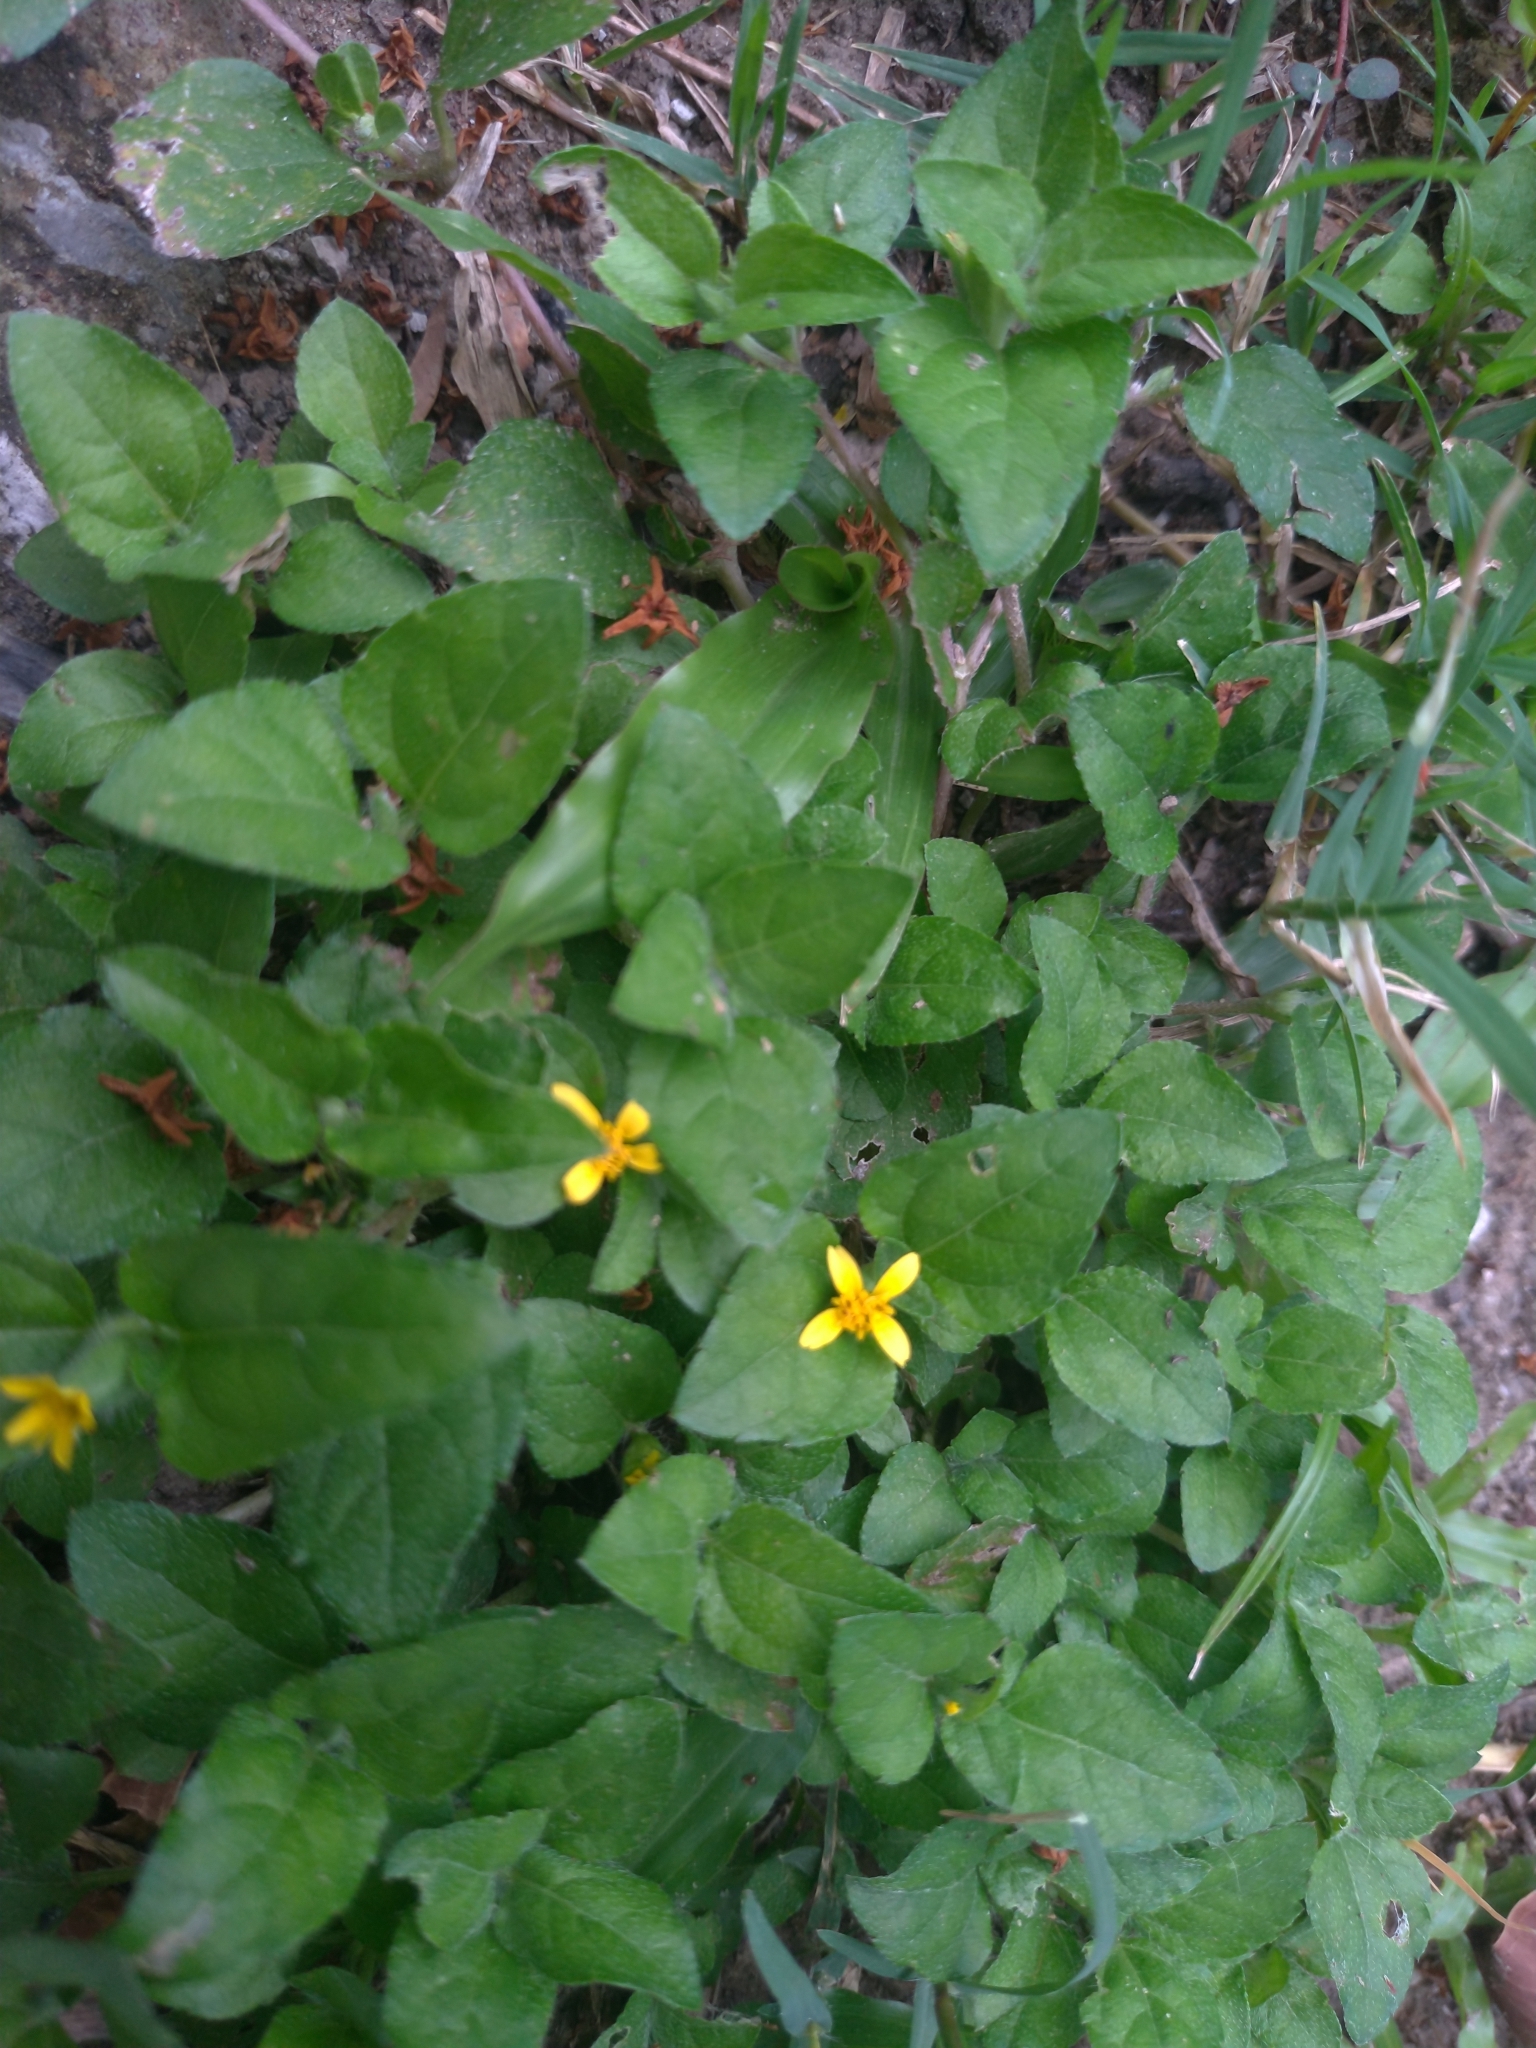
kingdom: Plantae
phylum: Tracheophyta
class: Magnoliopsida
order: Asterales
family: Asteraceae
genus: Calyptocarpus
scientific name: Calyptocarpus vialis
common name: Straggler daisy
